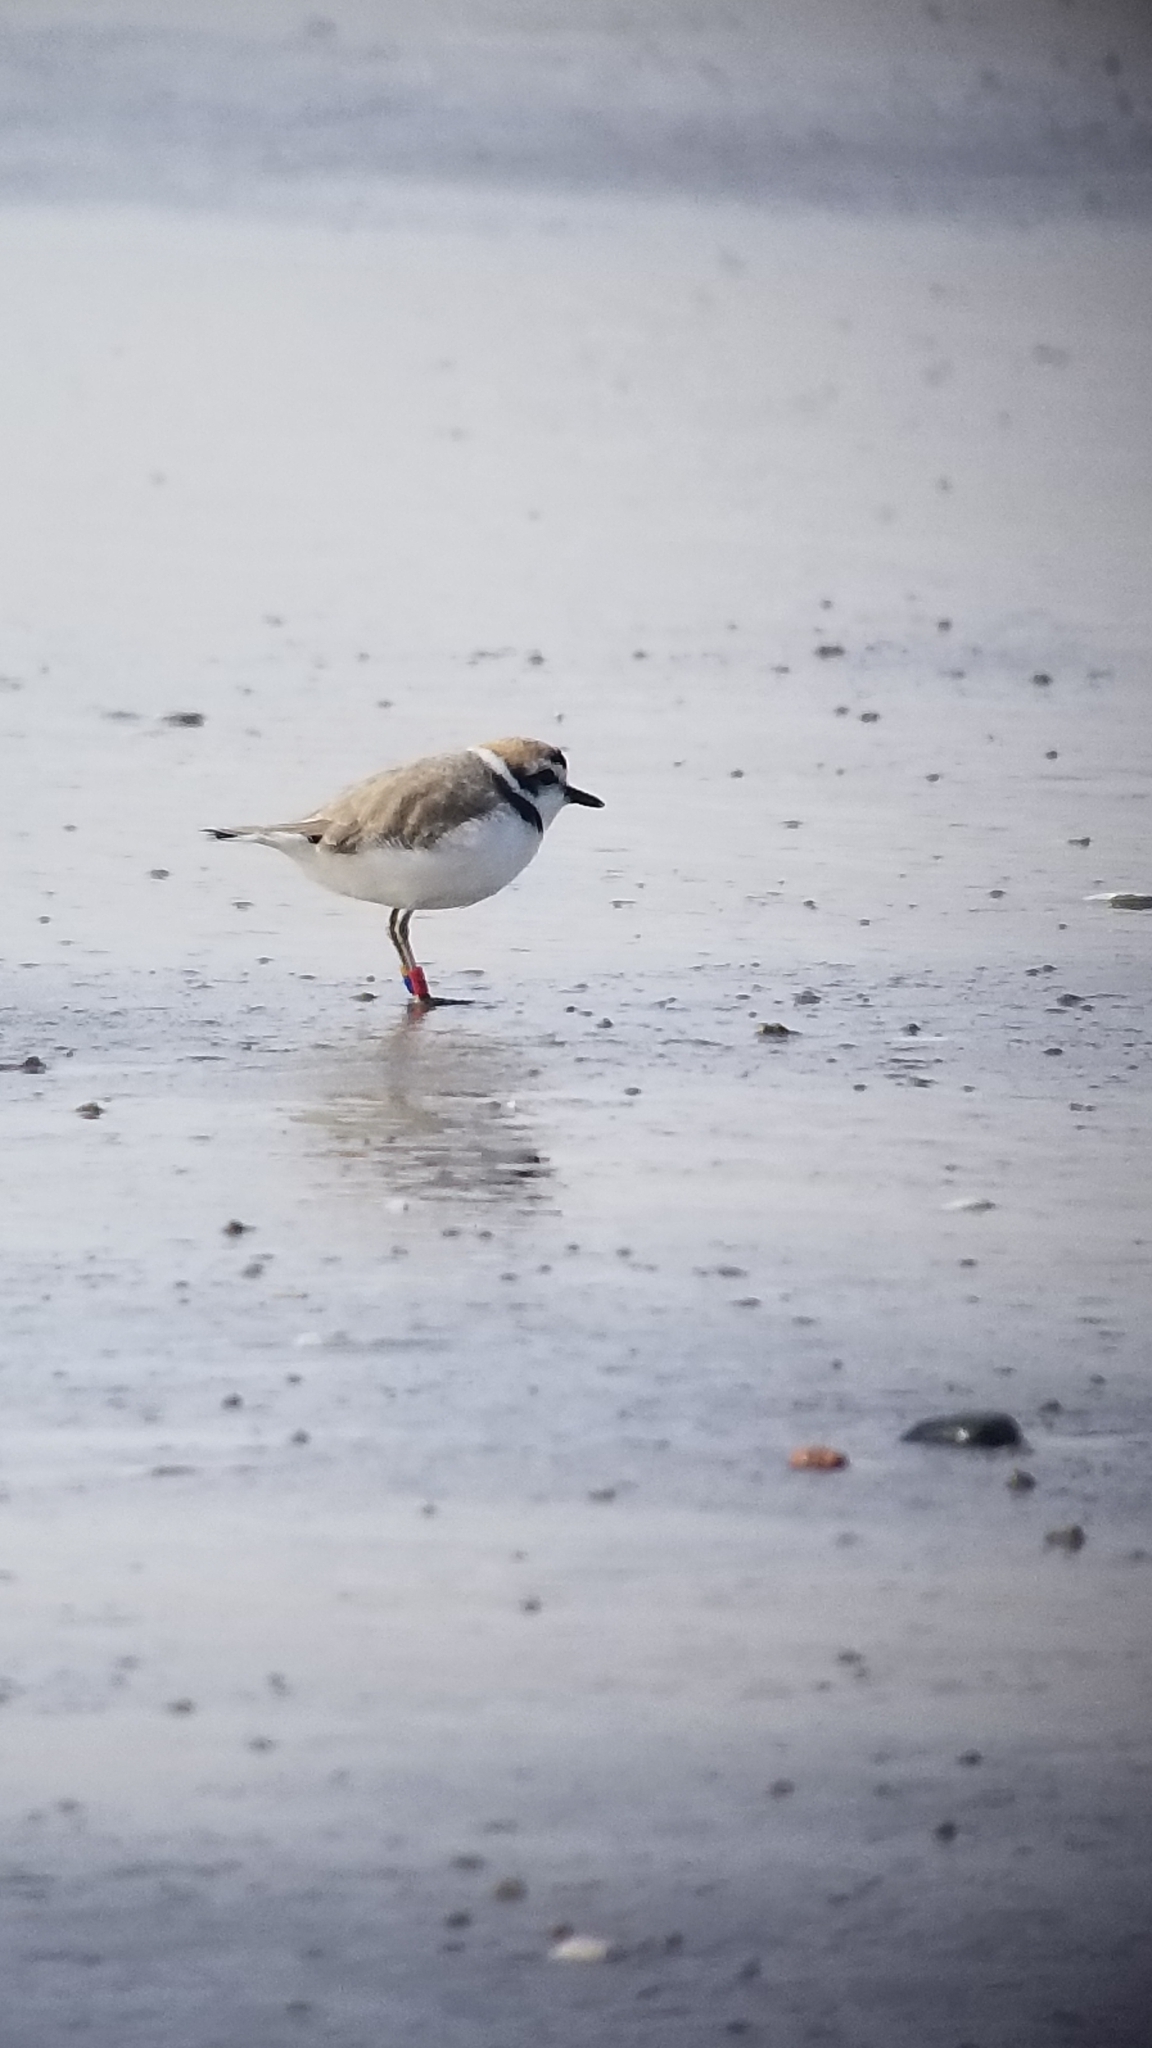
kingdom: Animalia
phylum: Chordata
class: Aves
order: Charadriiformes
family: Charadriidae
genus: Anarhynchus
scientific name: Anarhynchus
